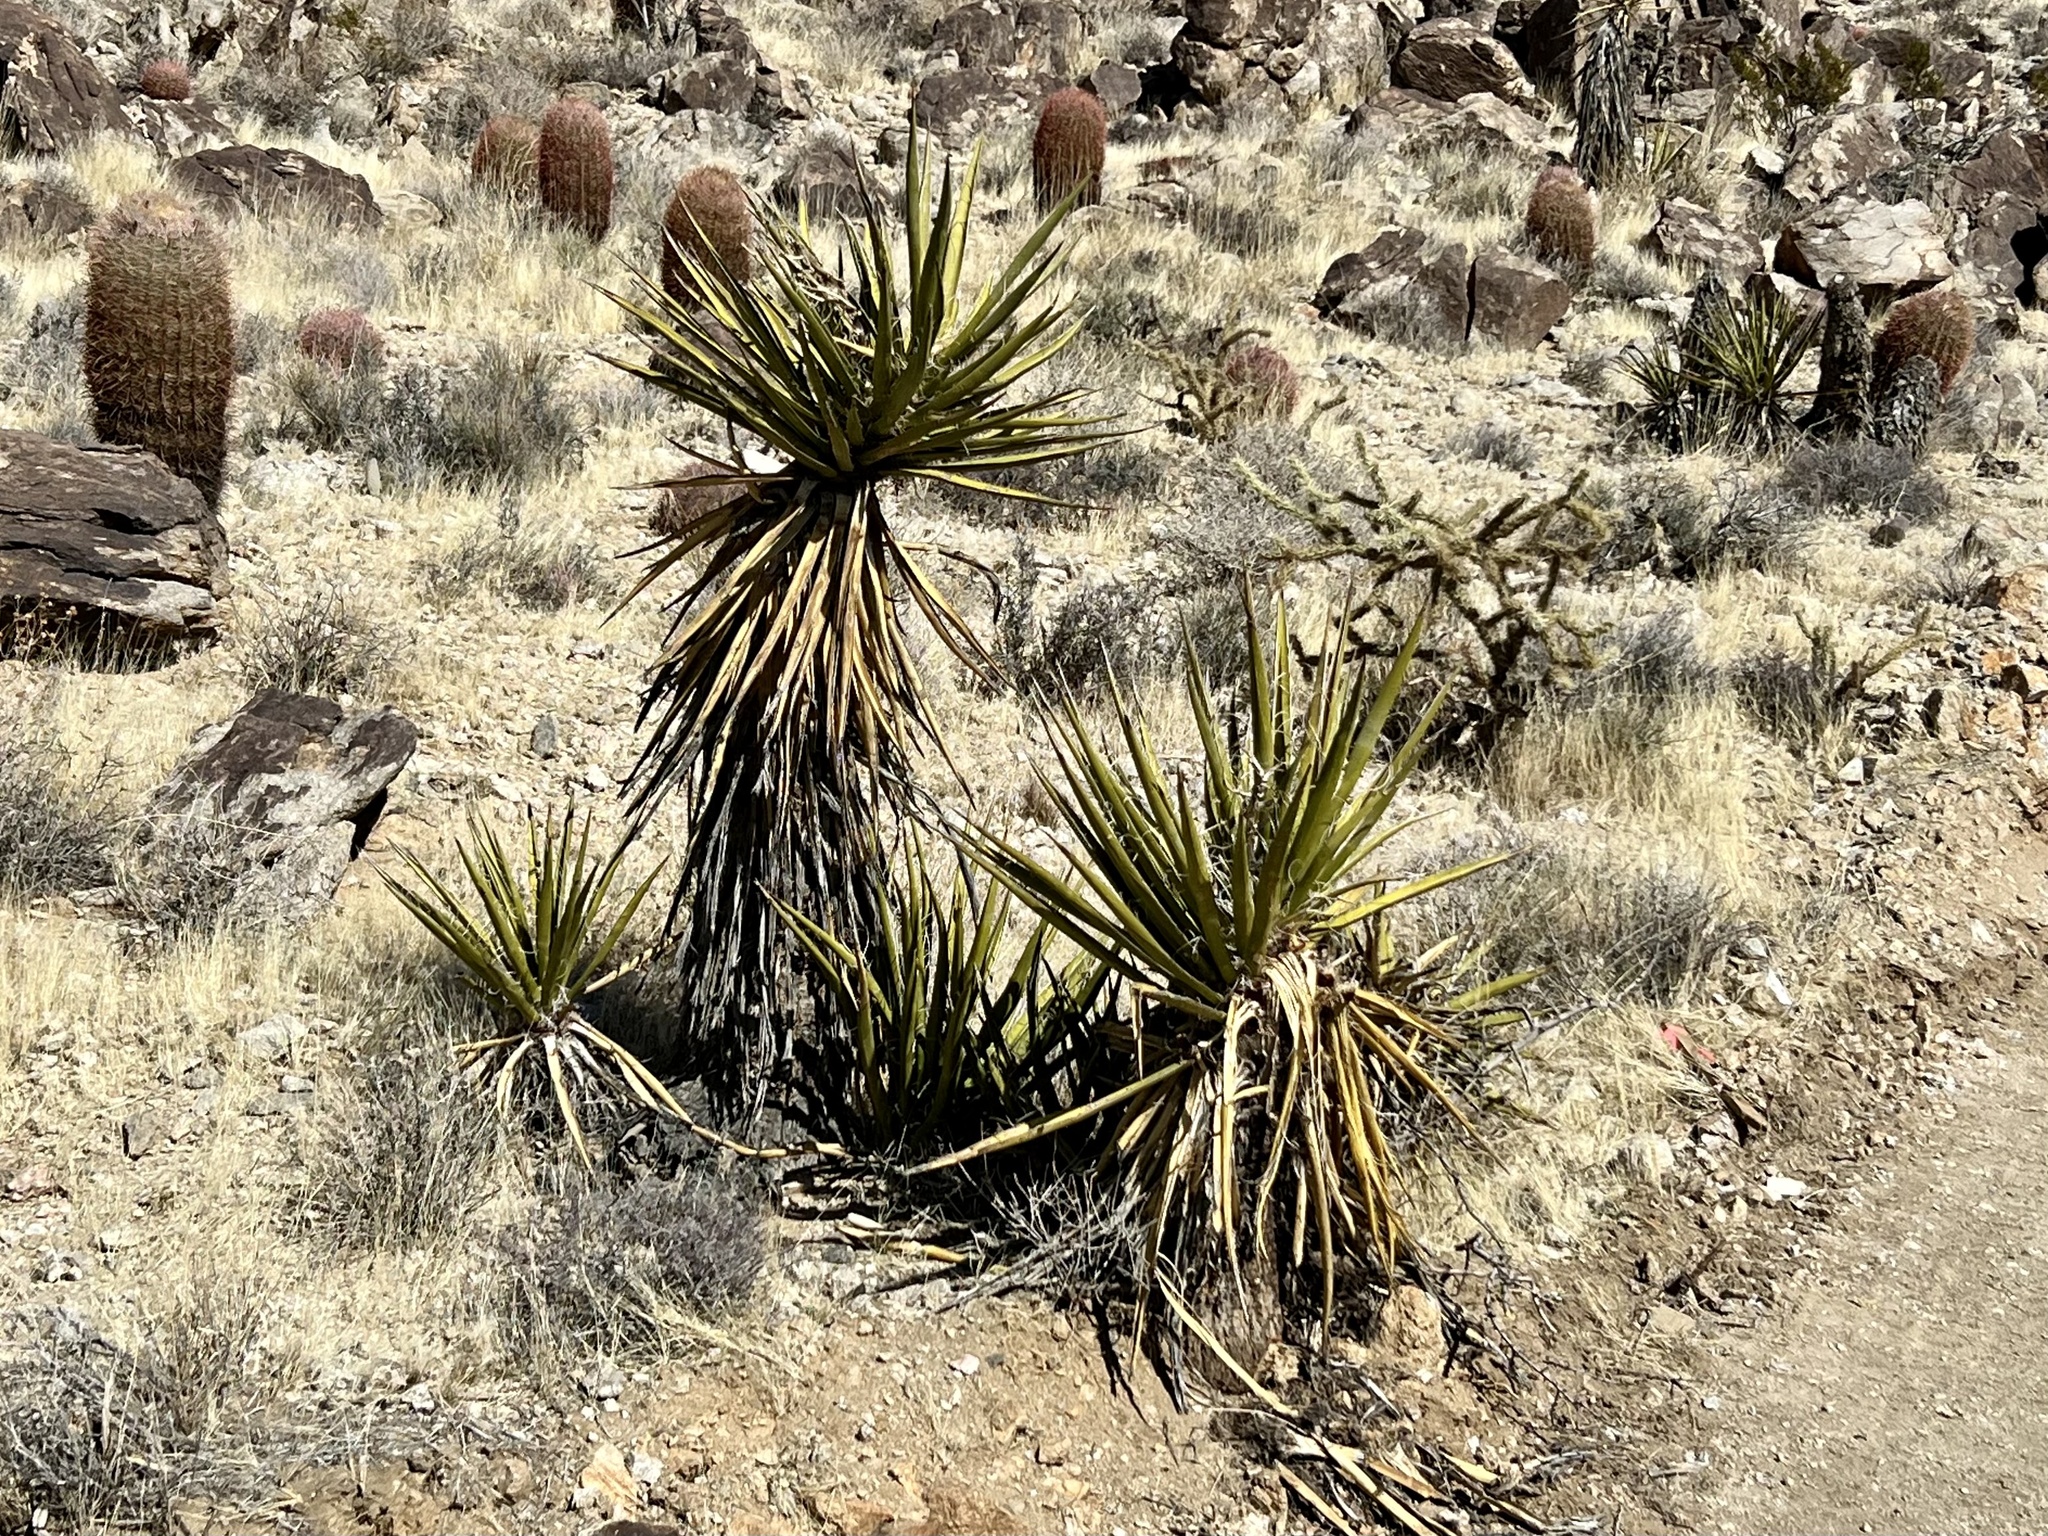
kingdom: Plantae
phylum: Tracheophyta
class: Liliopsida
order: Asparagales
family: Asparagaceae
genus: Yucca
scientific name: Yucca schidigera
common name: Mojave yucca
